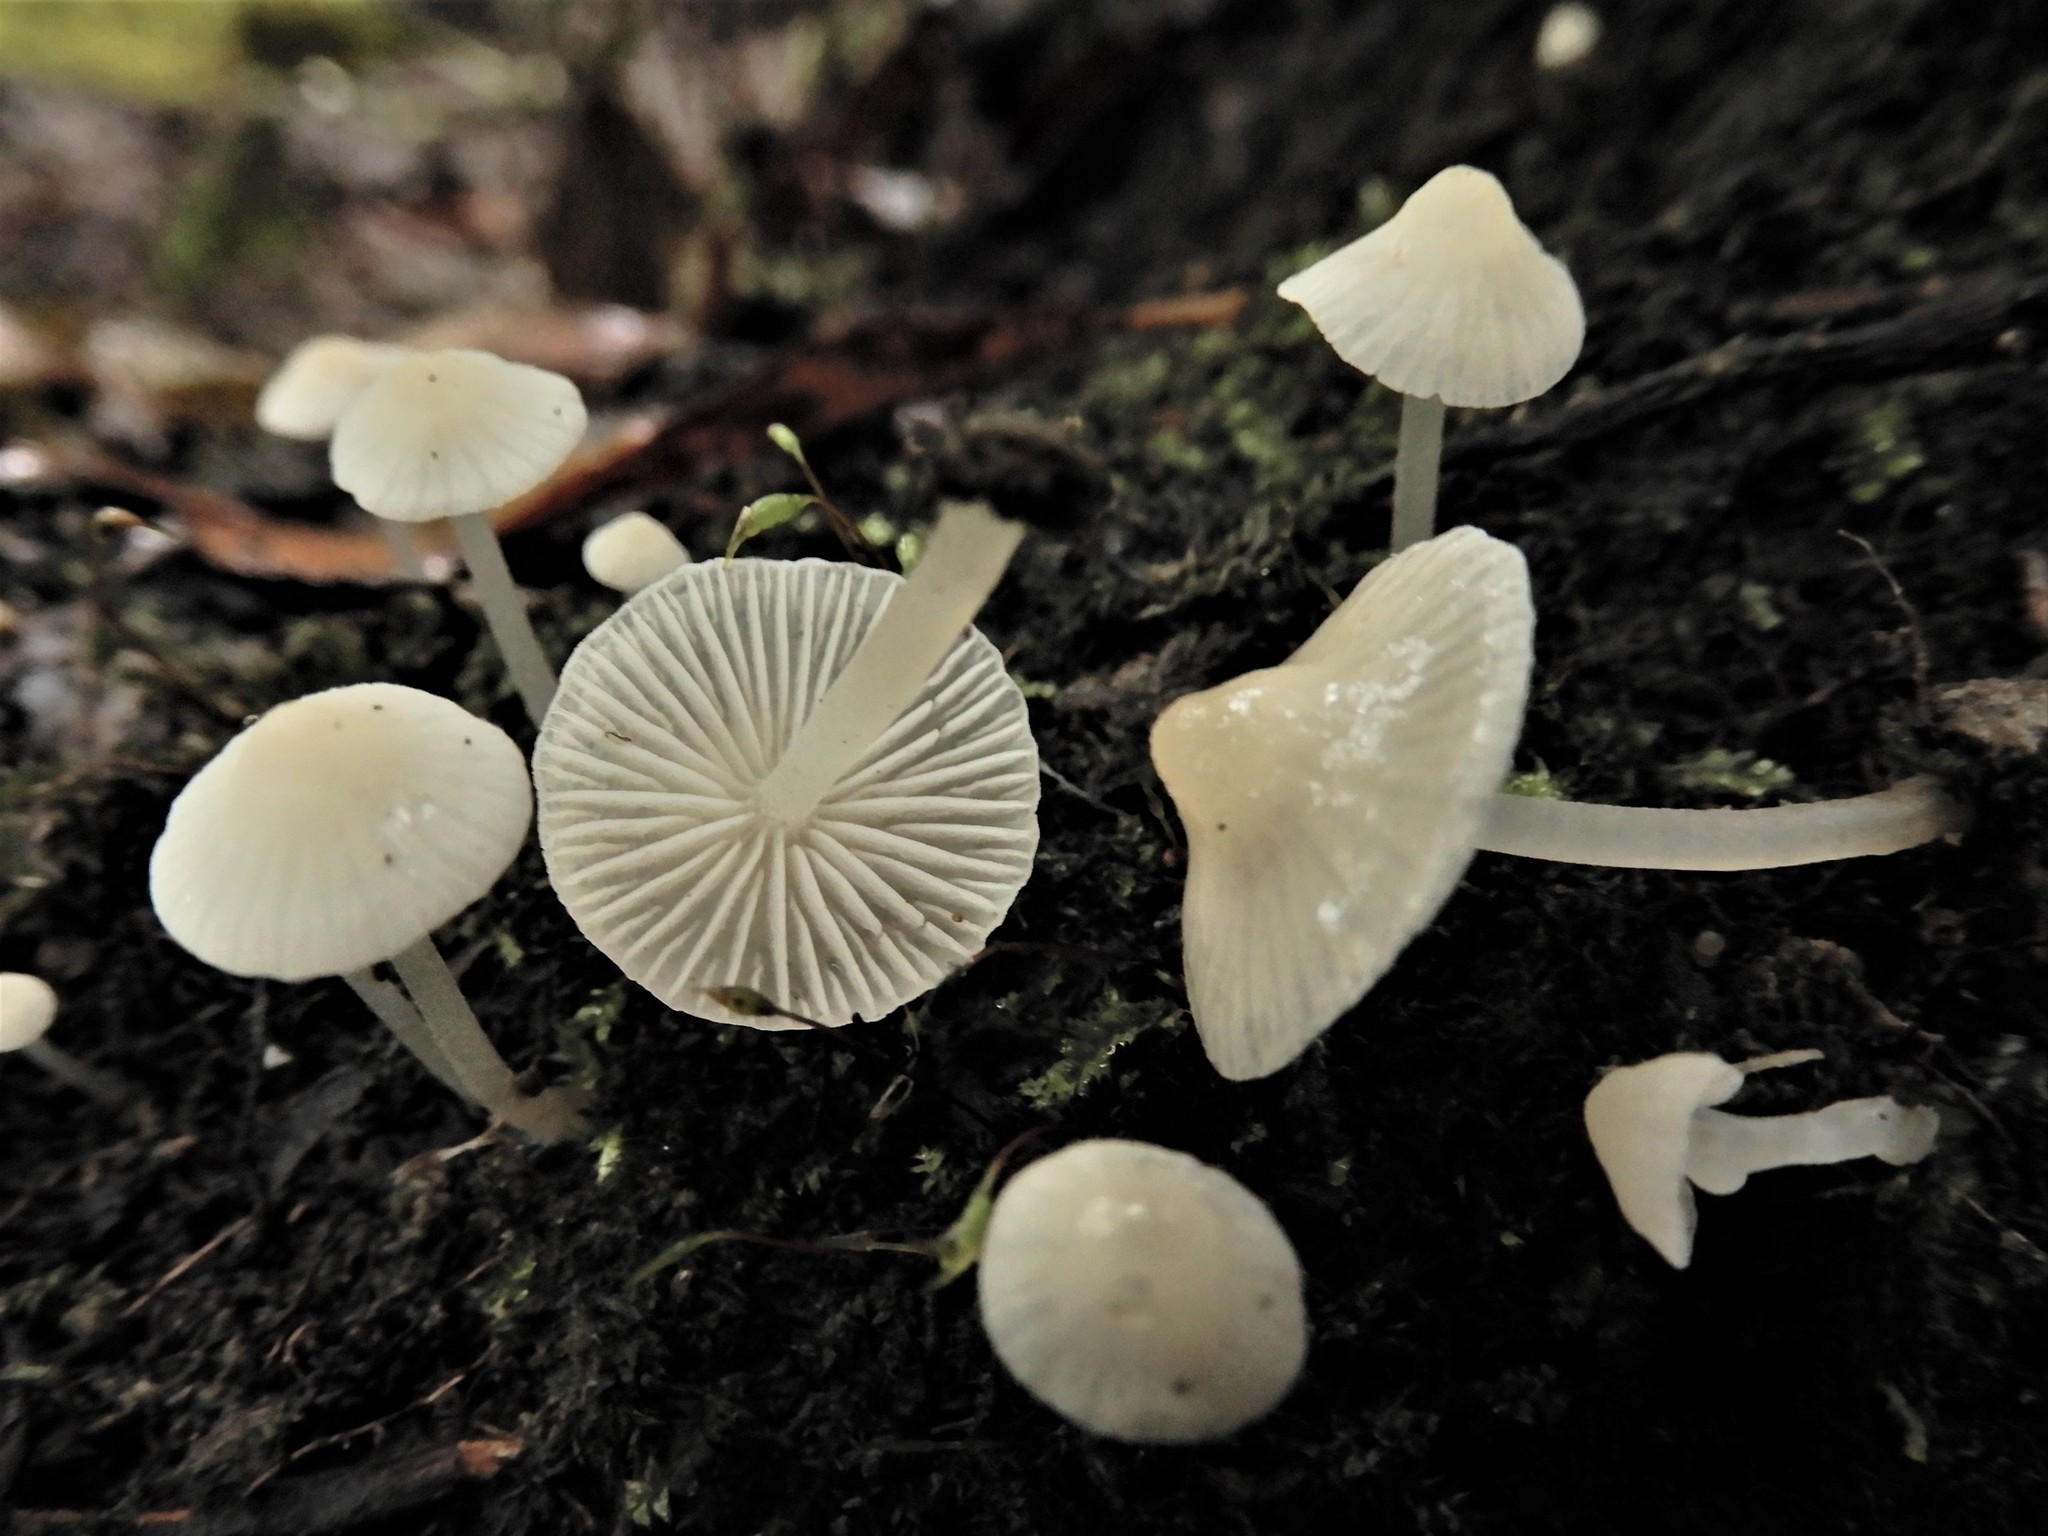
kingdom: Fungi
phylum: Basidiomycota
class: Agaricomycetes
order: Agaricales
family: Mycenaceae
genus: Atheniella
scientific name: Atheniella flavoalba
